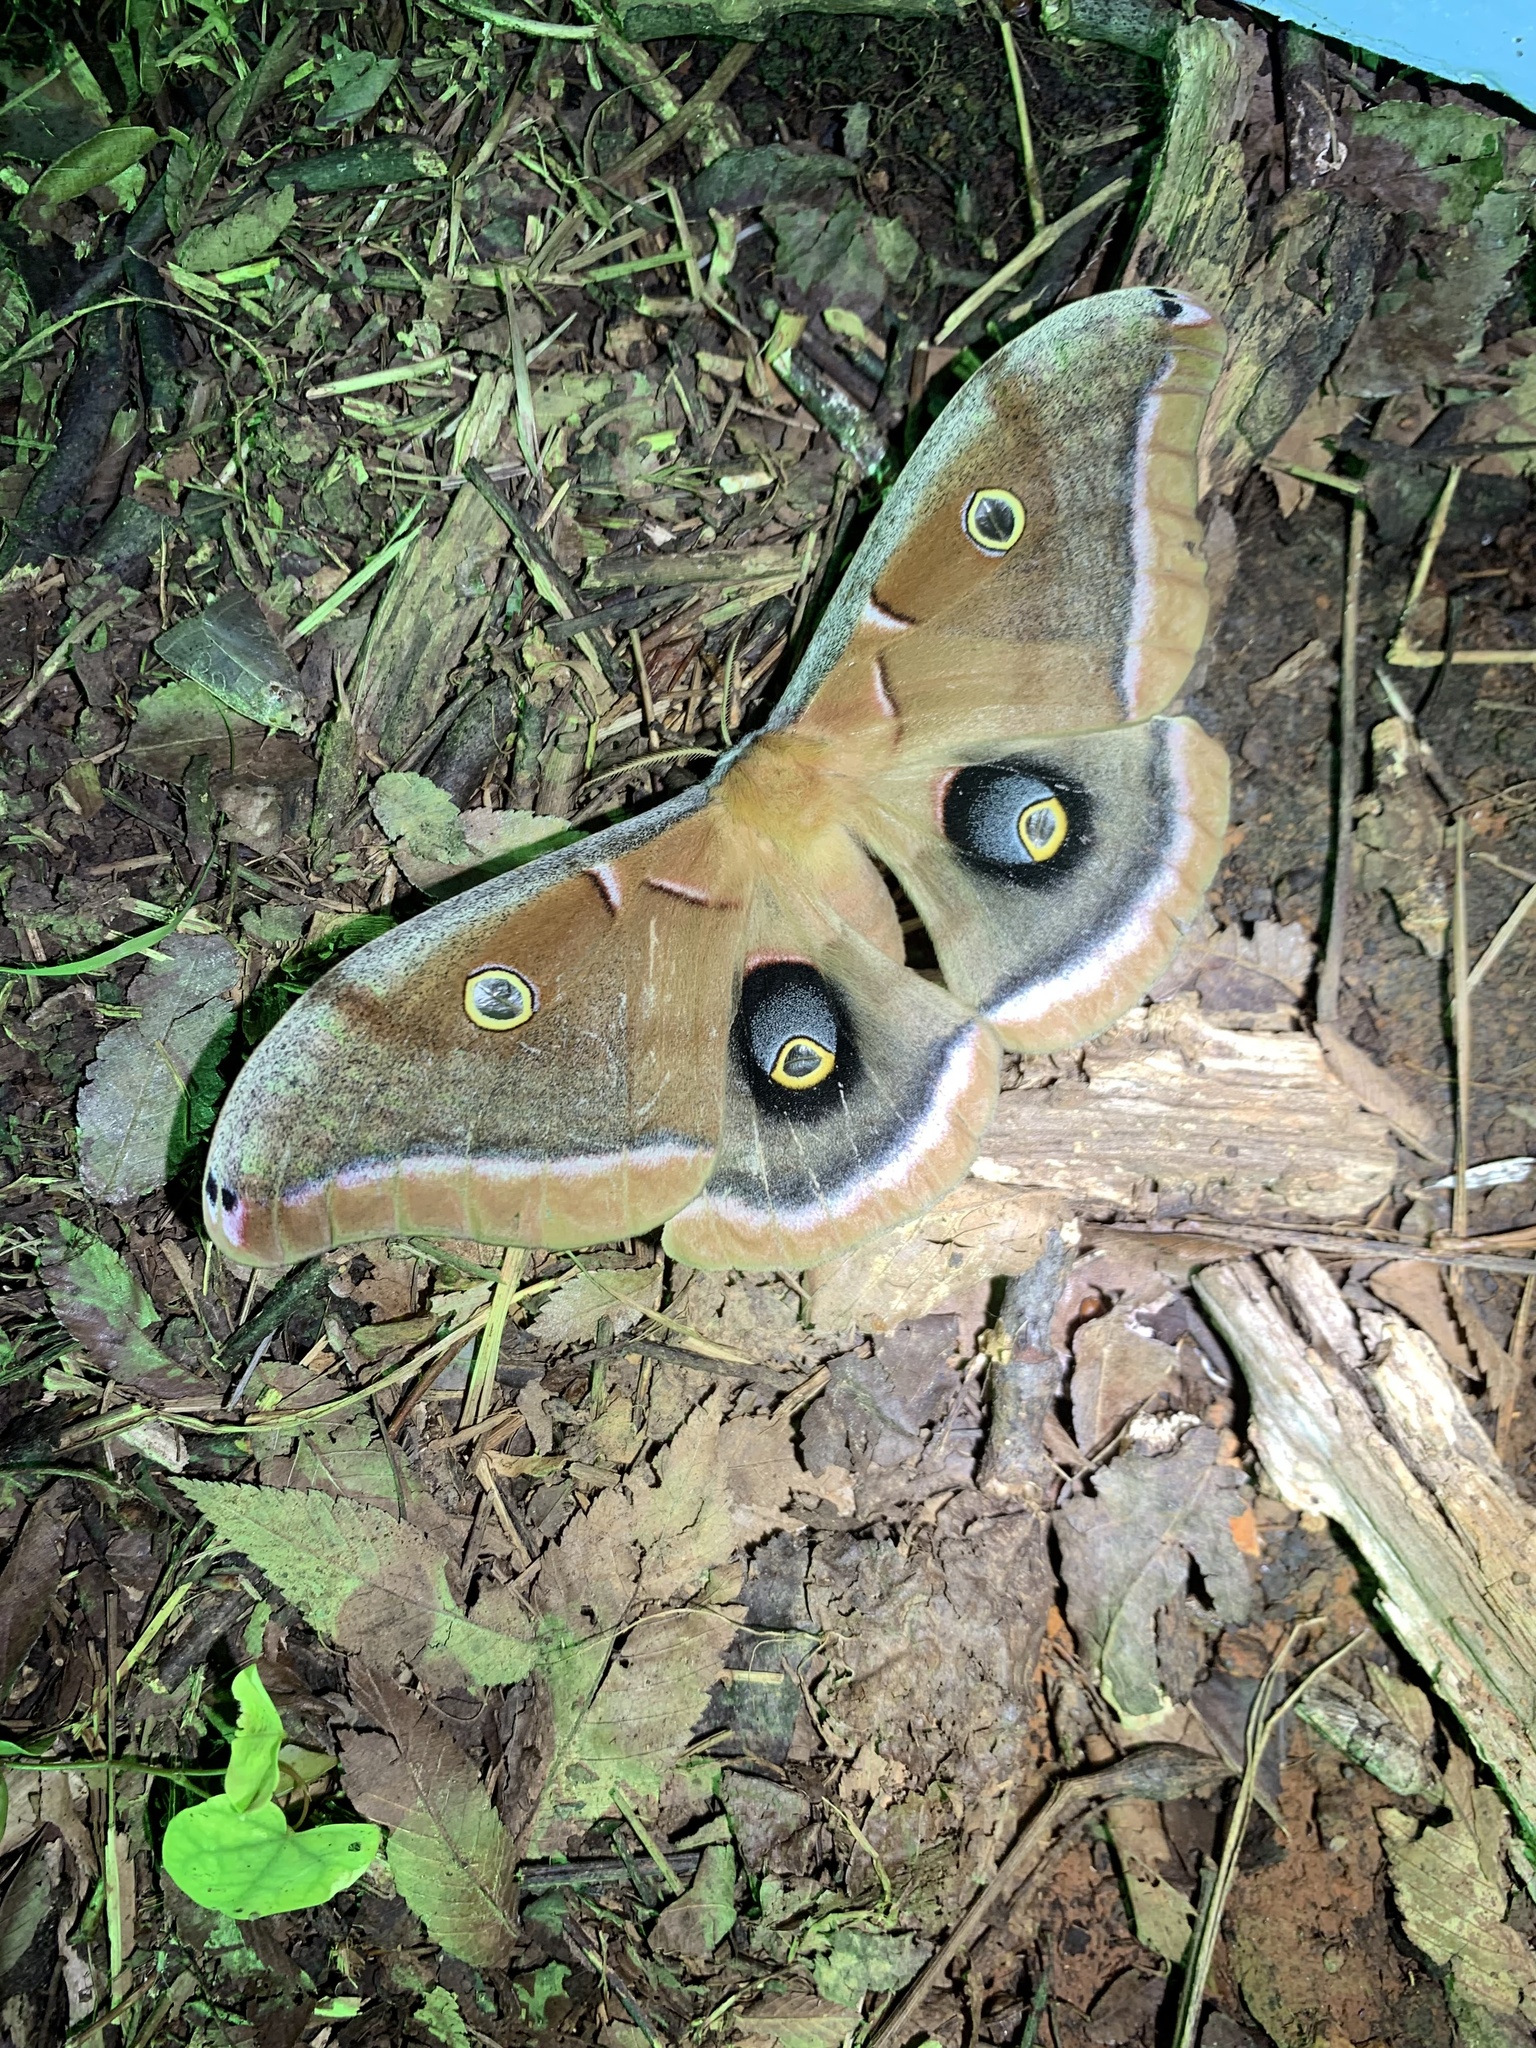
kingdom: Animalia
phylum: Arthropoda
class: Insecta
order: Lepidoptera
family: Saturniidae
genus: Antheraea
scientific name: Antheraea polyphemus
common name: Polyphemus moth
